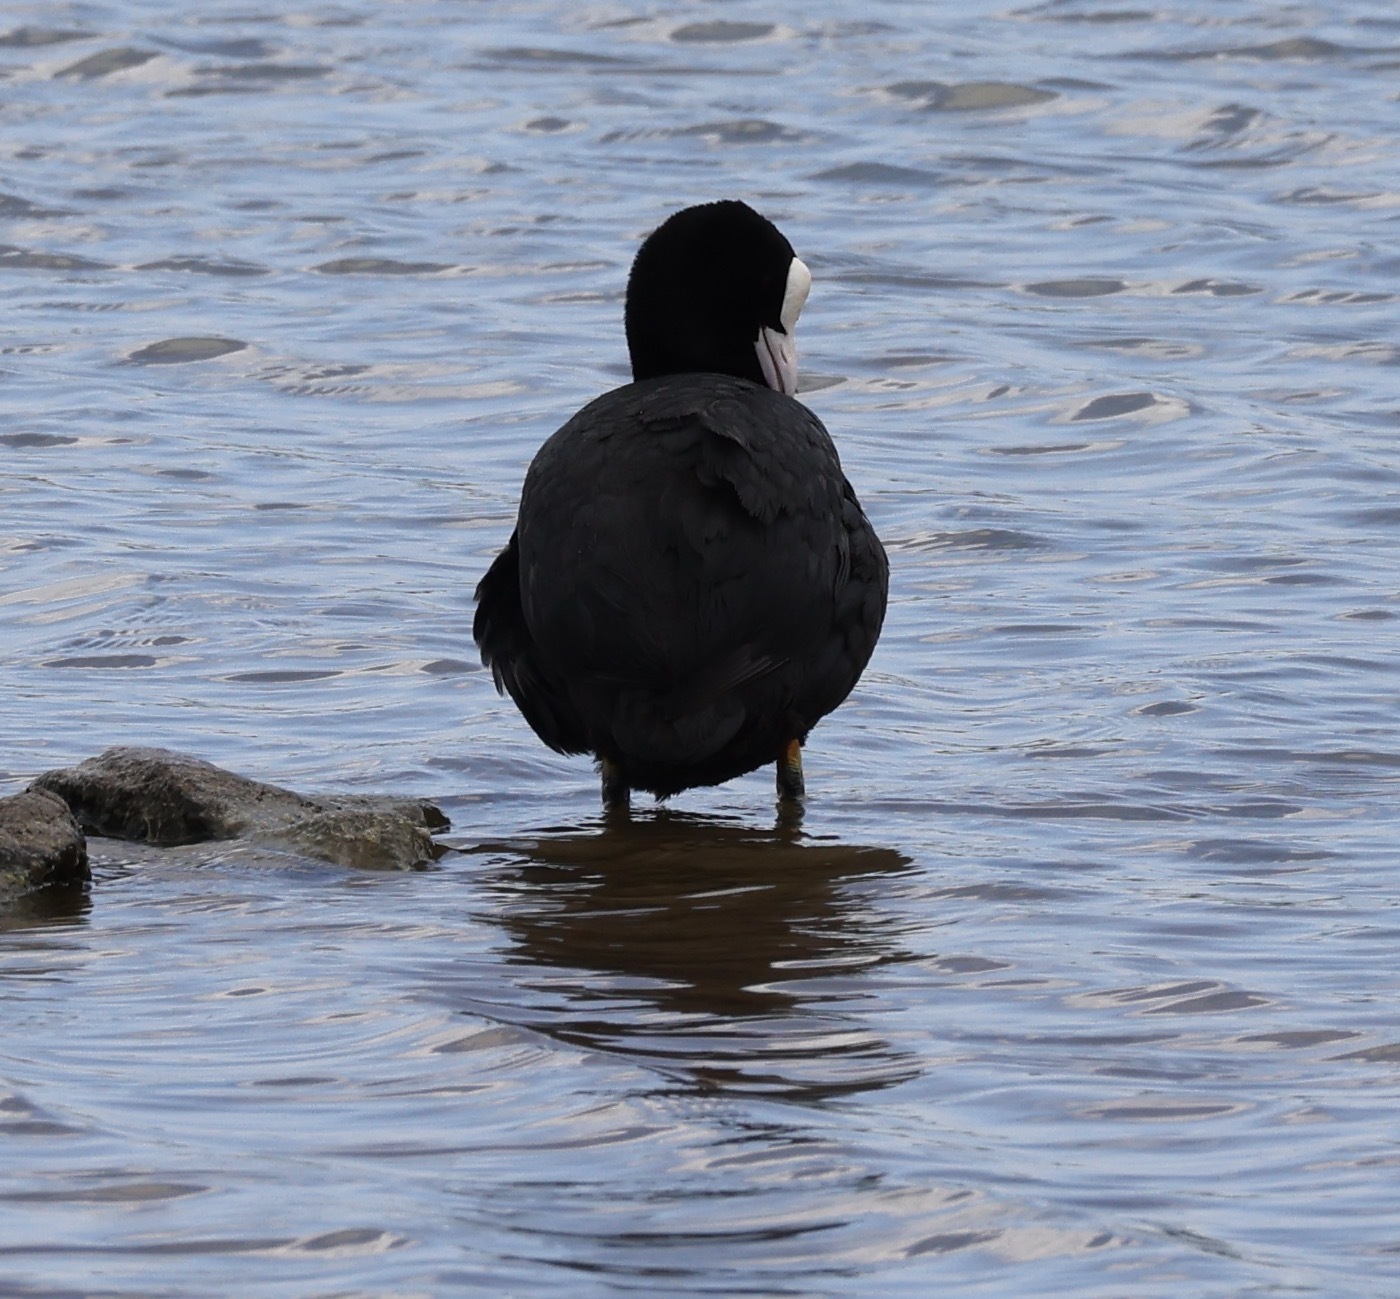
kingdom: Animalia
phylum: Chordata
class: Aves
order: Gruiformes
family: Rallidae
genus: Fulica
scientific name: Fulica atra
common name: Eurasian coot
